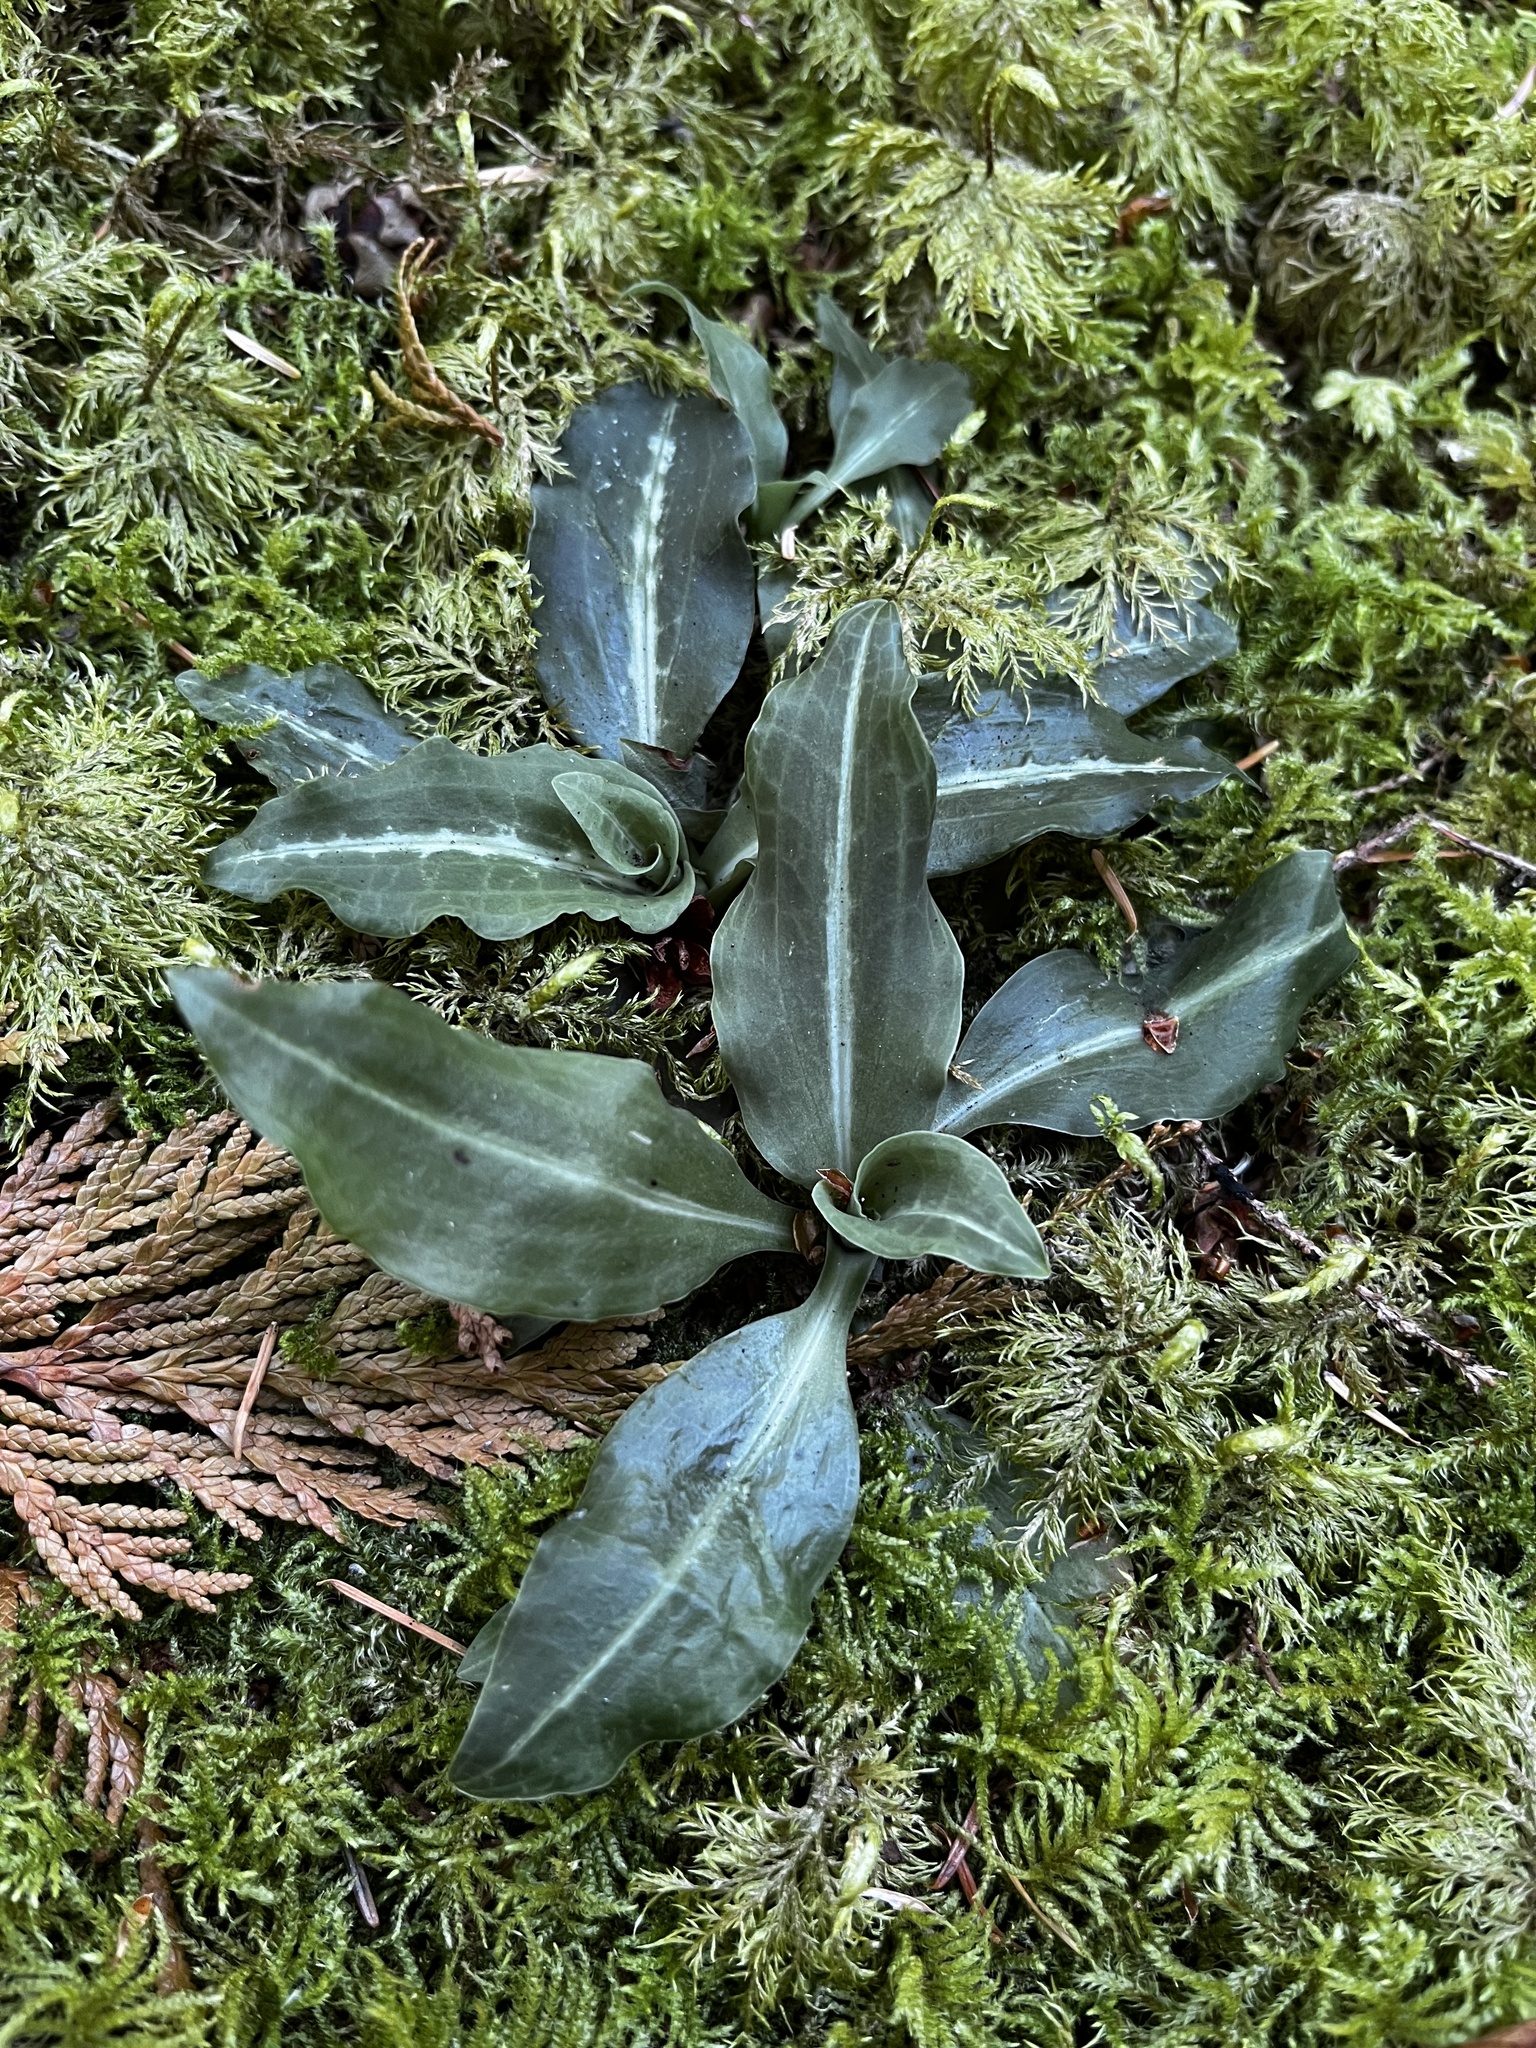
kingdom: Plantae
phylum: Tracheophyta
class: Liliopsida
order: Asparagales
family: Orchidaceae
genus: Goodyera
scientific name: Goodyera oblongifolia
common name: Giant rattlesnake-plantain
